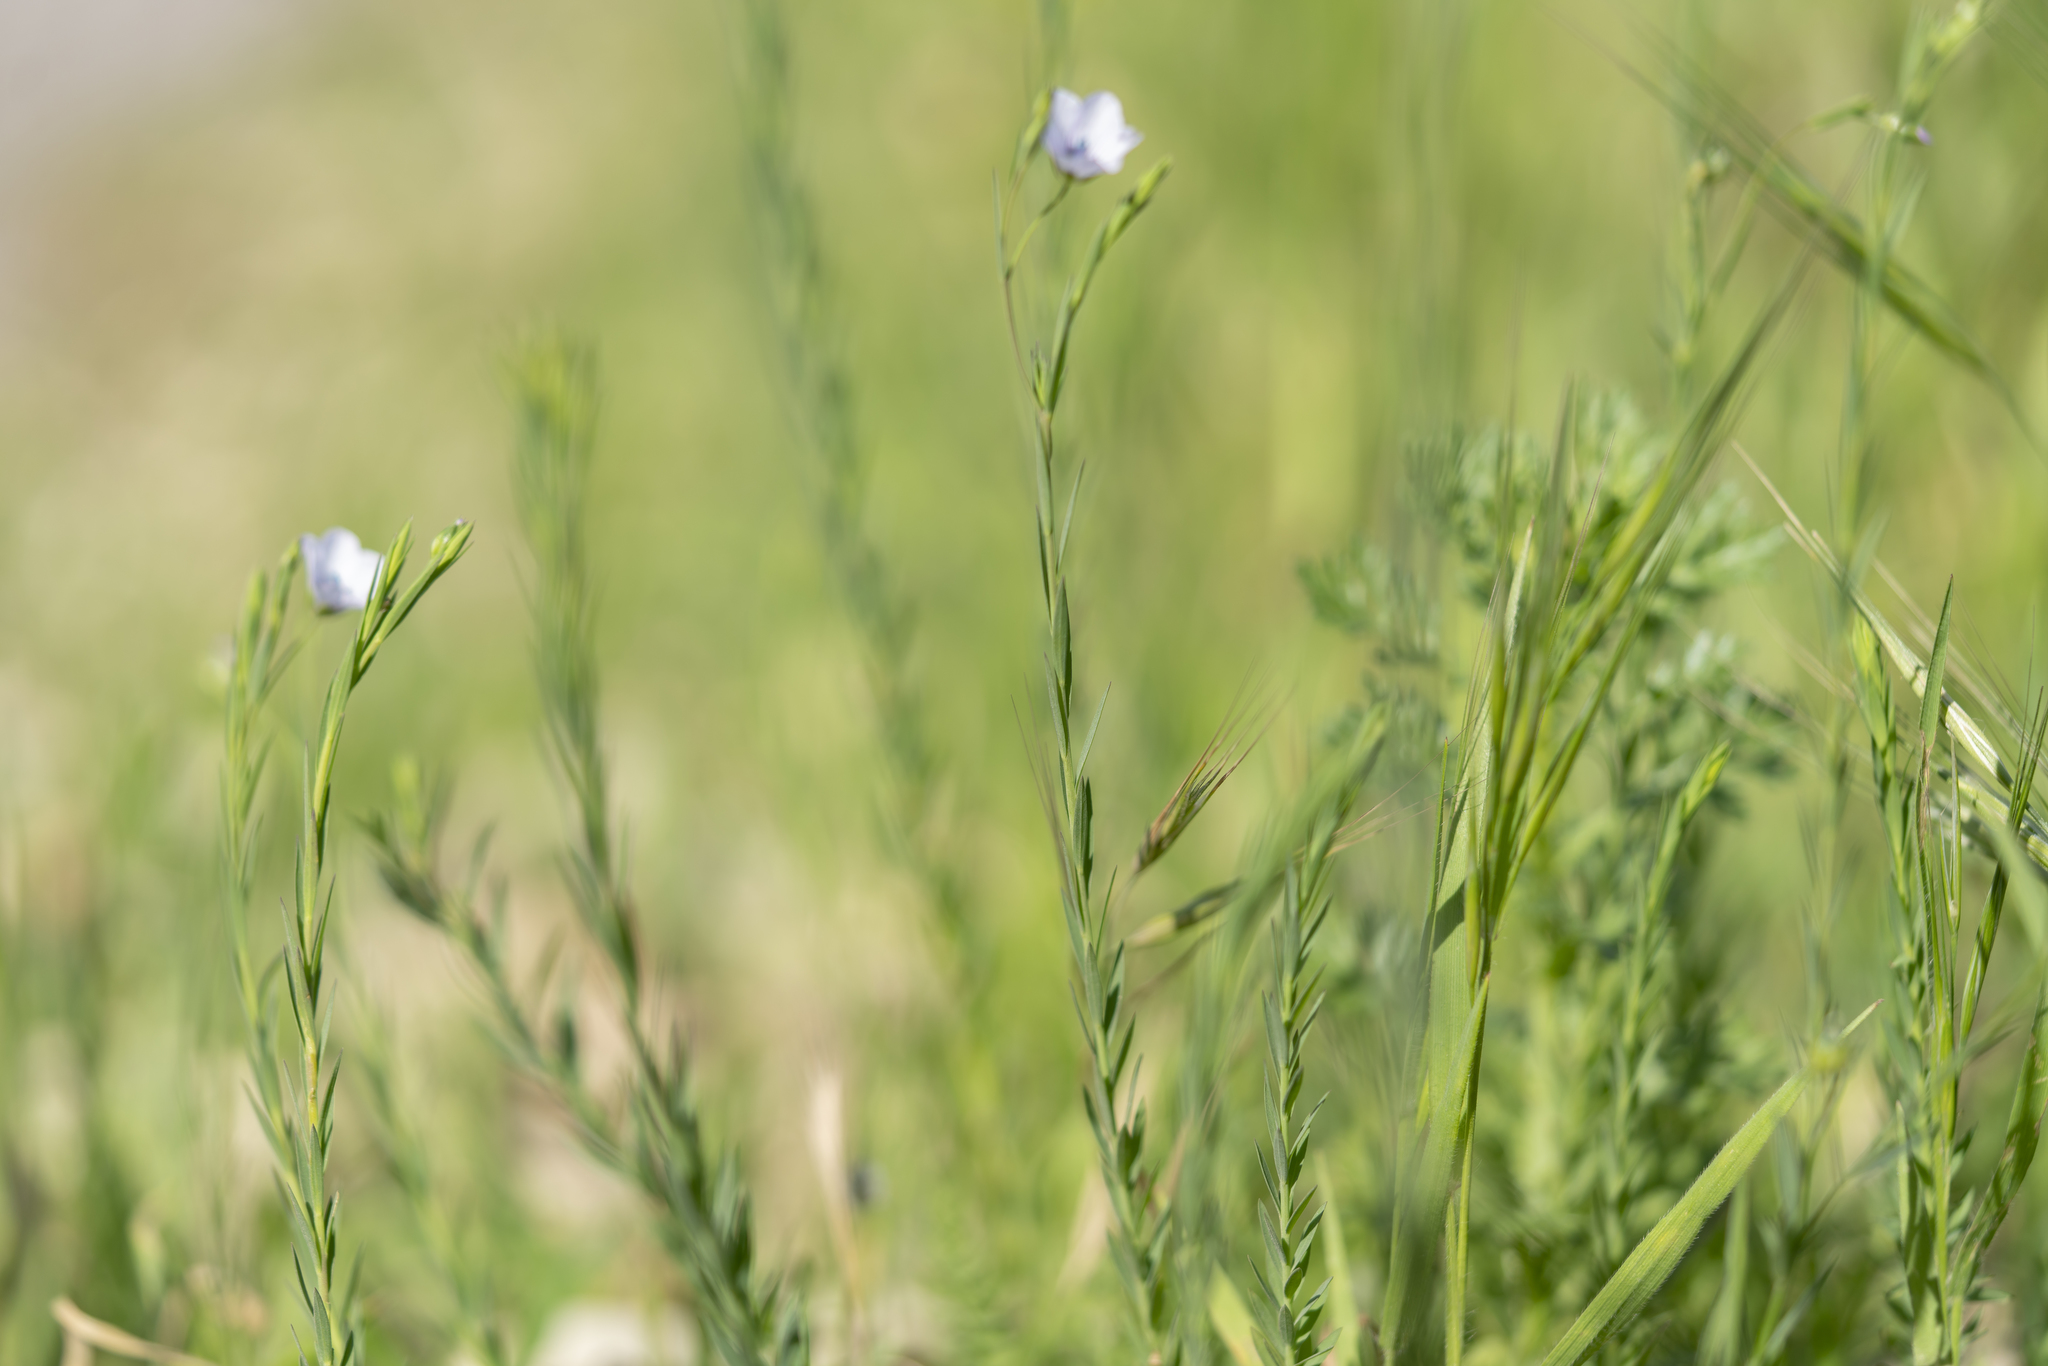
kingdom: Plantae
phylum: Tracheophyta
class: Magnoliopsida
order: Malpighiales
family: Linaceae
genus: Linum
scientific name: Linum bienne
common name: Pale flax
